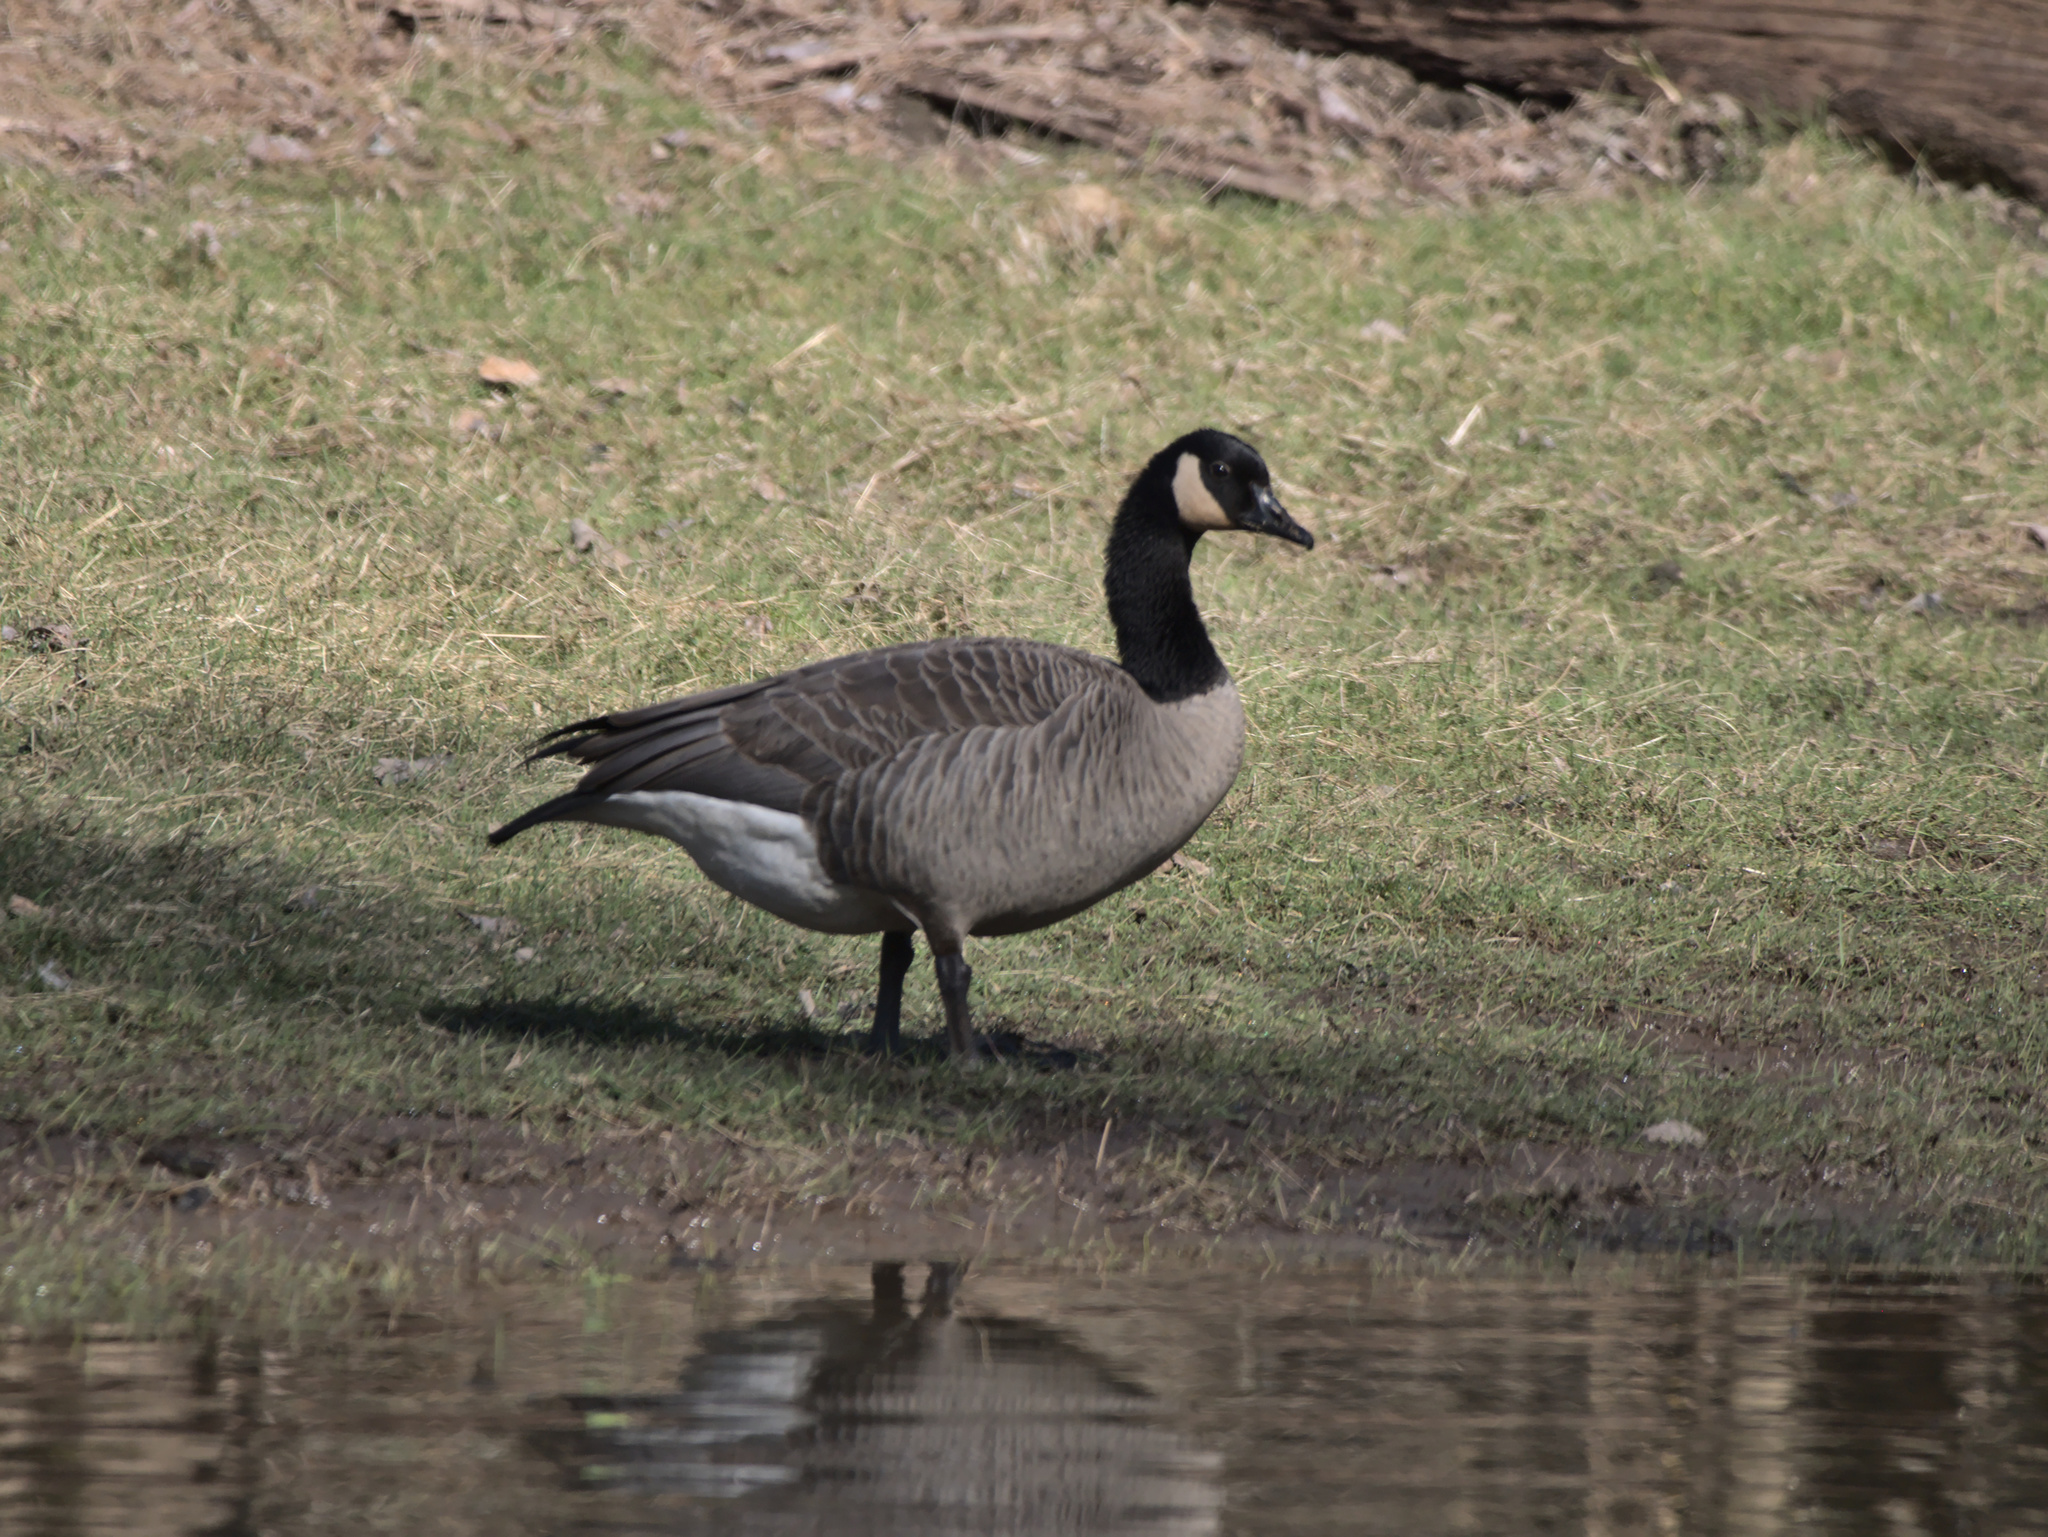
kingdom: Animalia
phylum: Chordata
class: Aves
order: Anseriformes
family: Anatidae
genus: Branta
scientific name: Branta canadensis
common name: Canada goose
